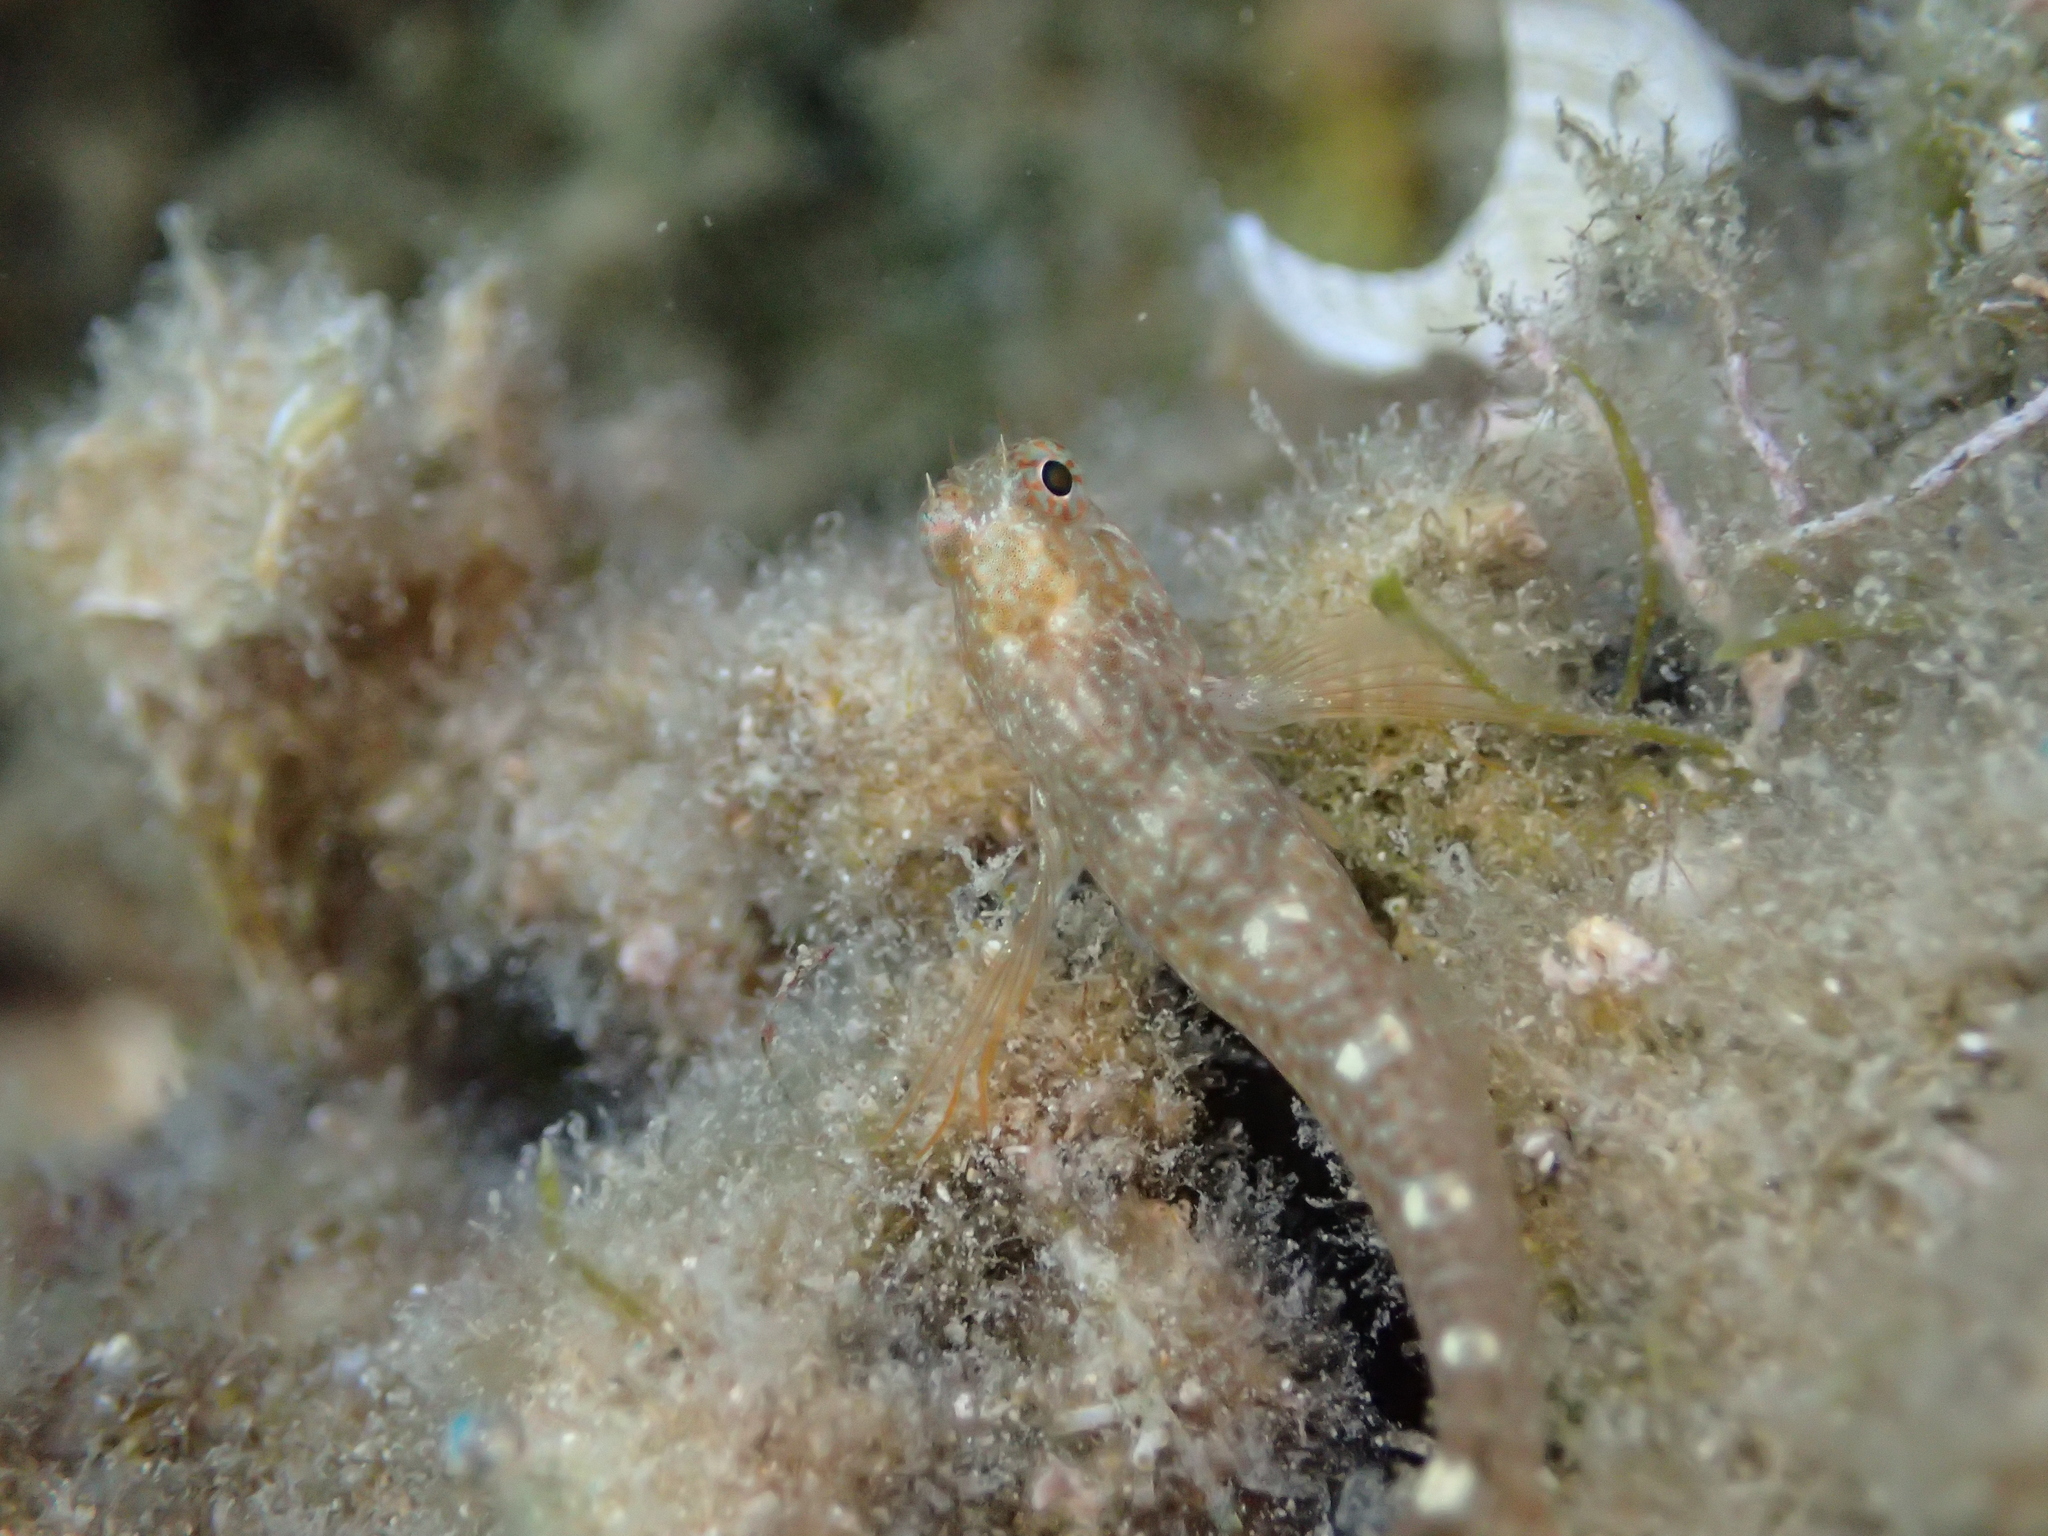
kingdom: Animalia
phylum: Chordata
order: Perciformes
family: Blenniidae
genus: Parablennius
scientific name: Parablennius zvonimiri
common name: Red blenny
